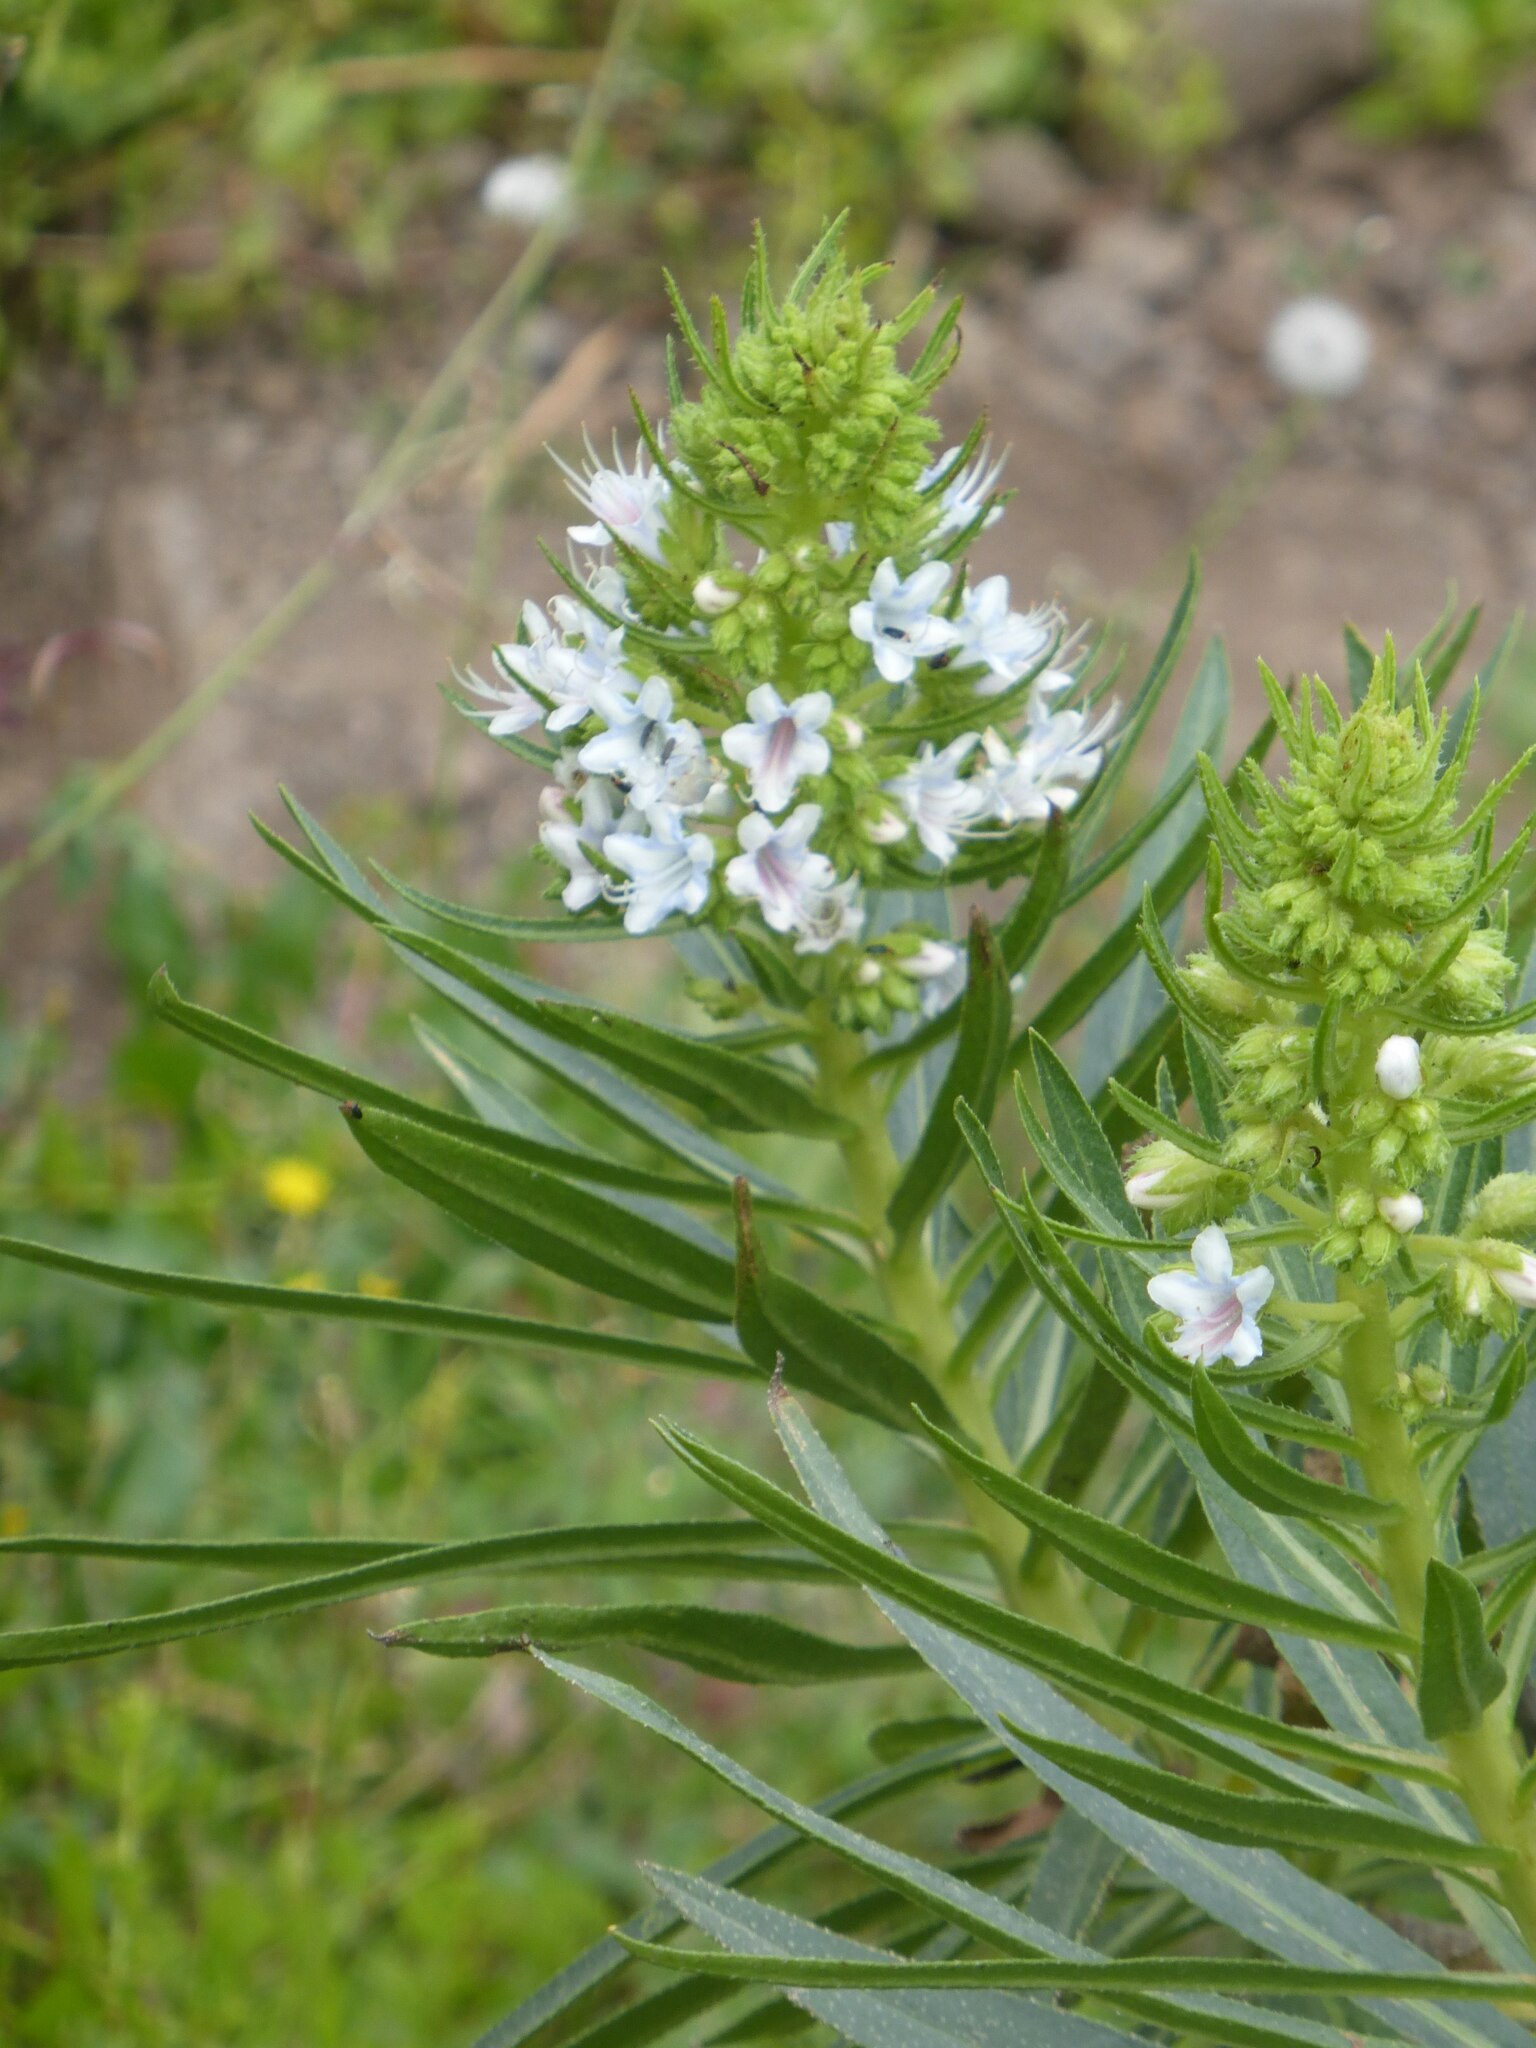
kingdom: Plantae
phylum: Tracheophyta
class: Magnoliopsida
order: Boraginales
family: Boraginaceae
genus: Echium
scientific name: Echium decaisnei
